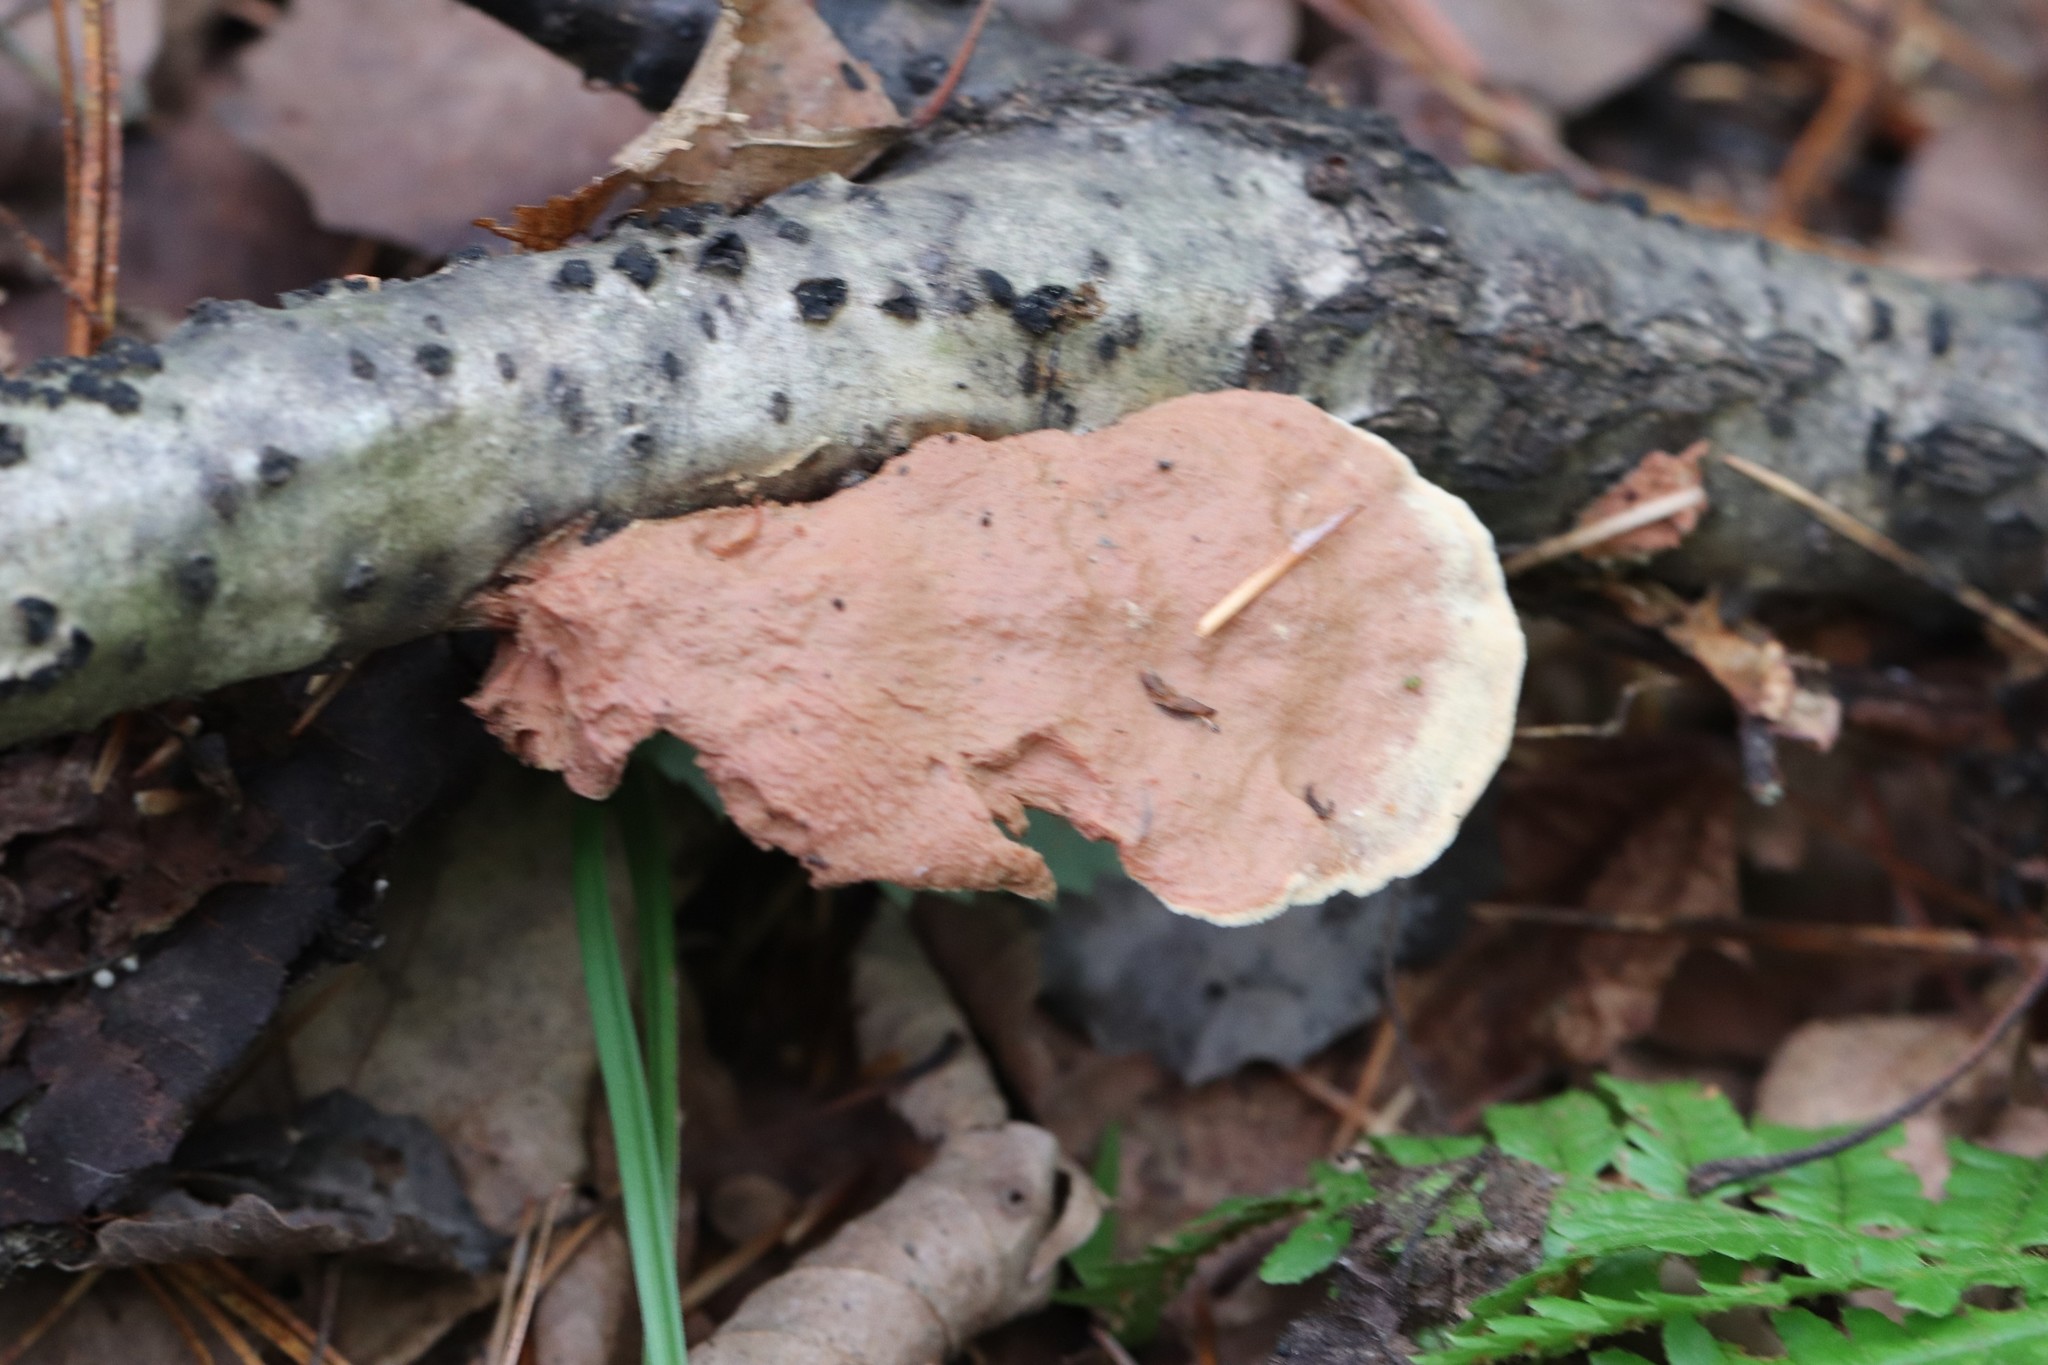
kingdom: Fungi
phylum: Basidiomycota
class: Agaricomycetes
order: Polyporales
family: Phanerochaetaceae
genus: Hapalopilus
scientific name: Hapalopilus rutilans
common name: Tender nesting polypore
